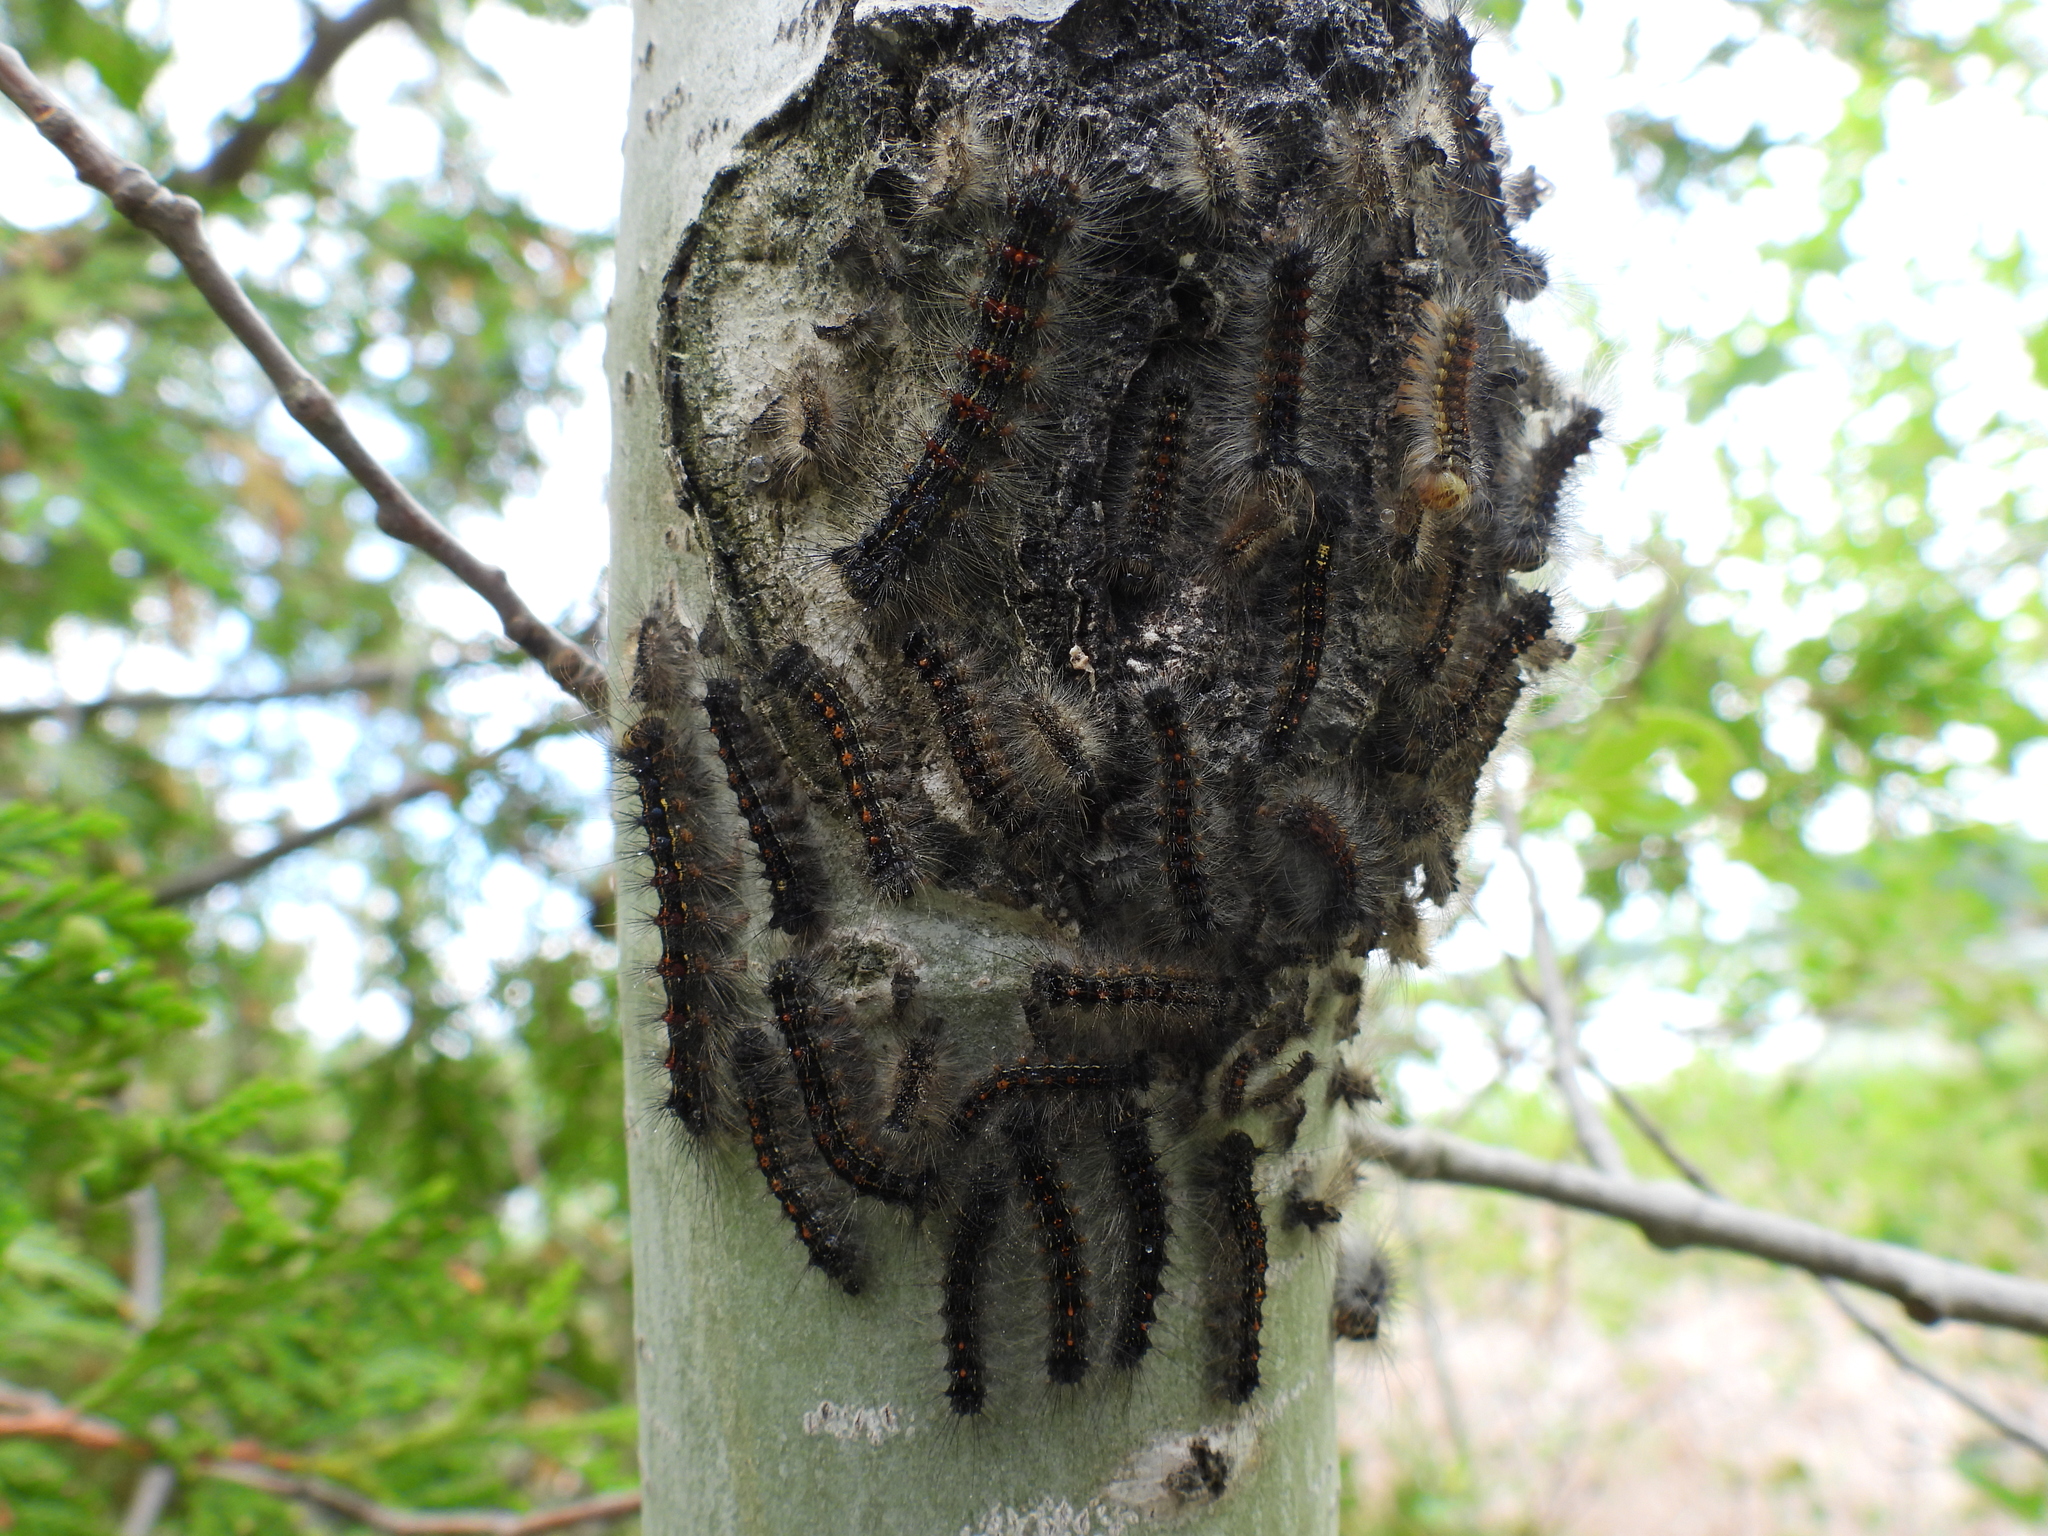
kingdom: Animalia
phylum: Arthropoda
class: Insecta
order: Lepidoptera
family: Erebidae
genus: Lymantria
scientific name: Lymantria dispar
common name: Gypsy moth
